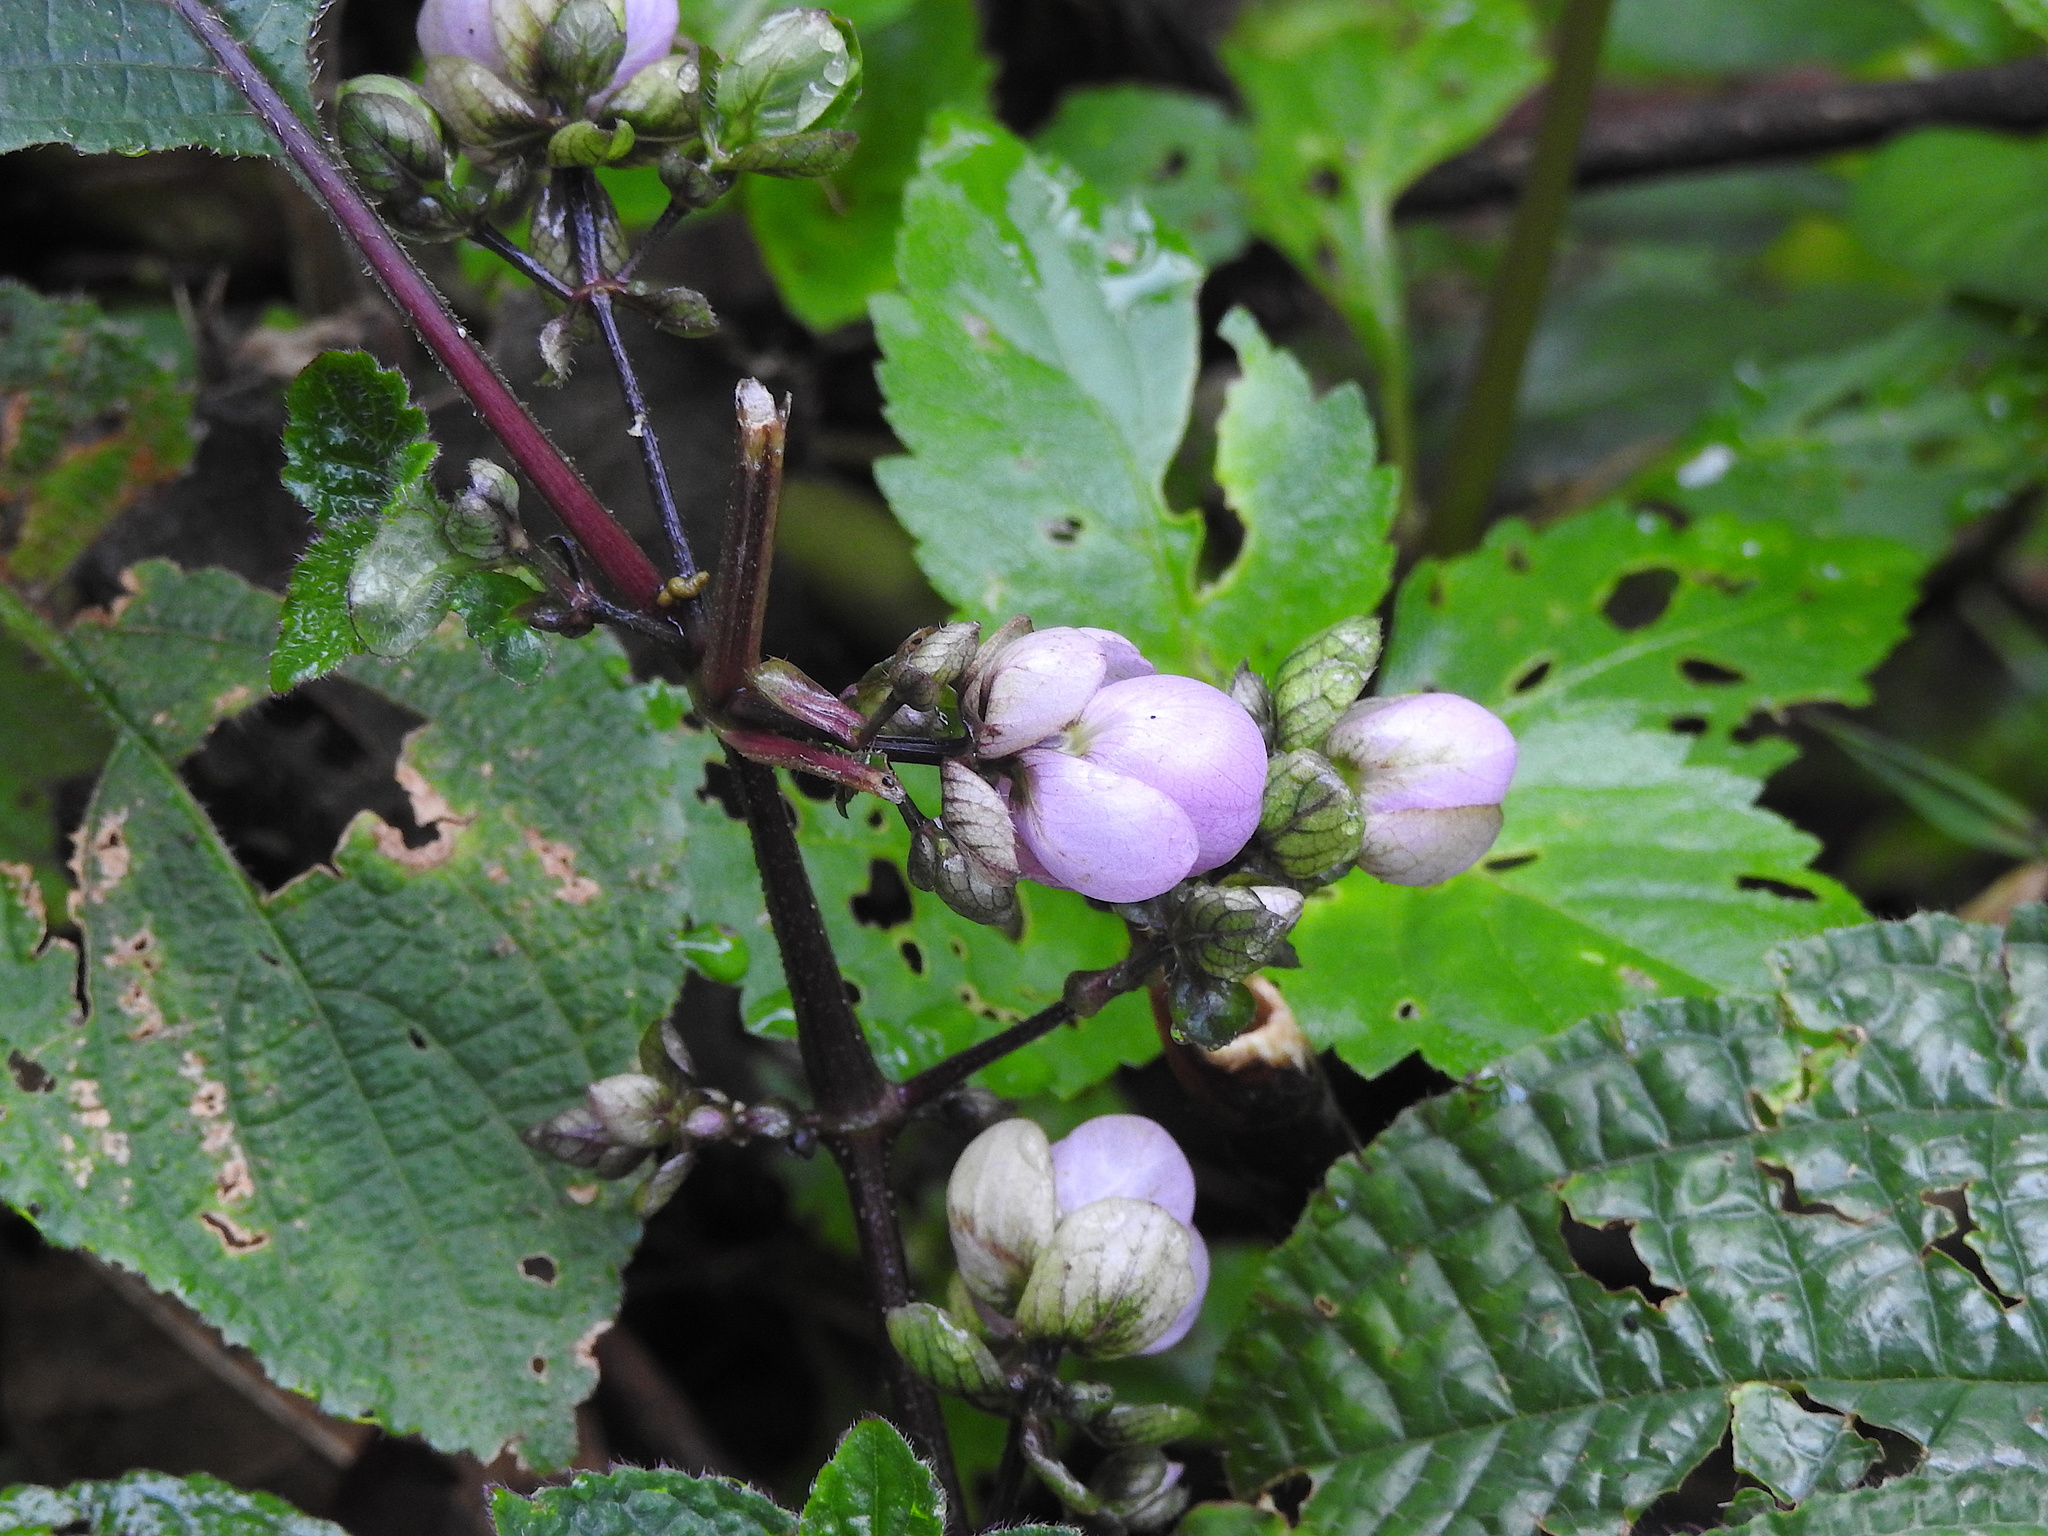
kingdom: Plantae
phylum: Tracheophyta
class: Magnoliopsida
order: Lamiales
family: Acanthaceae
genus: Strobilanthes
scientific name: Strobilanthes lupulina
